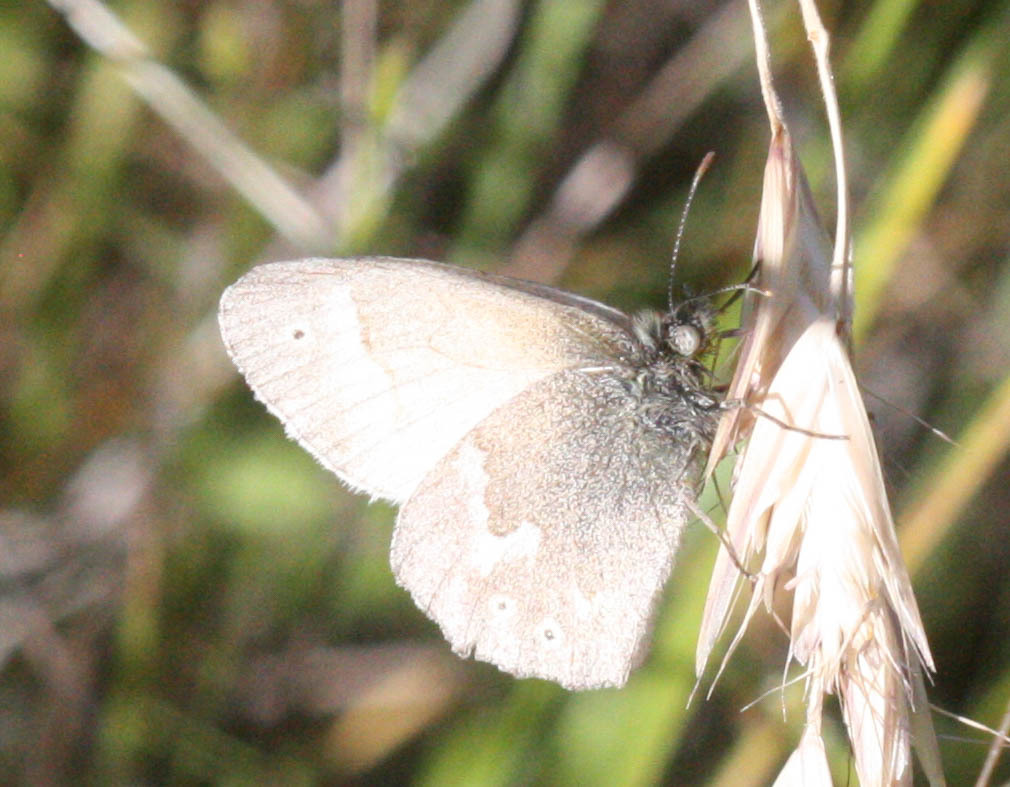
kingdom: Animalia
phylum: Arthropoda
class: Insecta
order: Lepidoptera
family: Nymphalidae
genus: Coenonympha
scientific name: Coenonympha california
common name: Common ringlet
